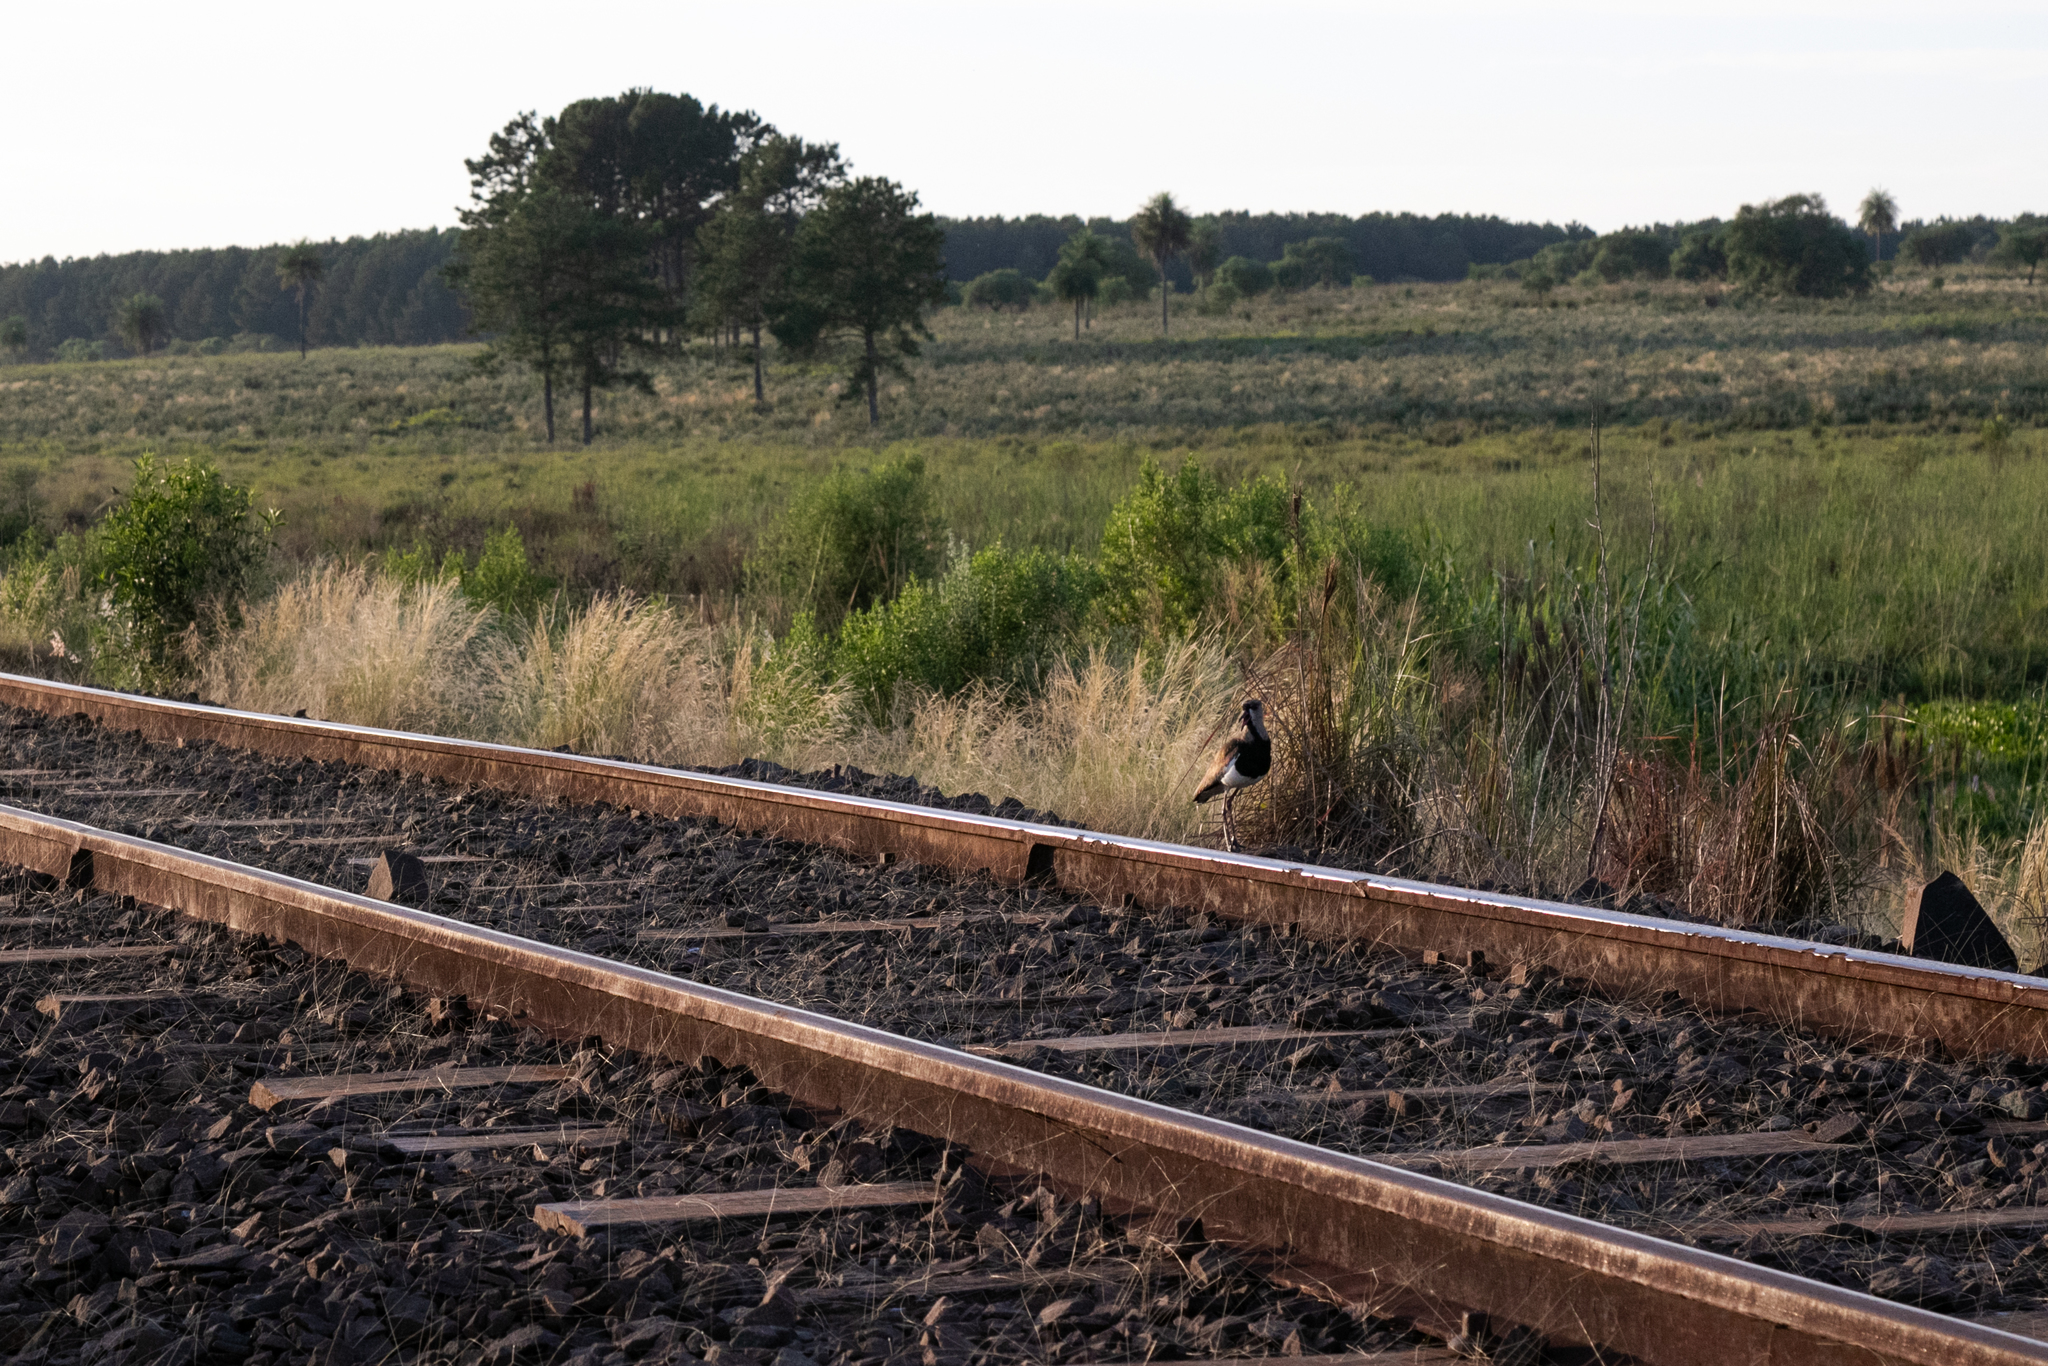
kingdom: Animalia
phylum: Chordata
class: Aves
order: Charadriiformes
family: Charadriidae
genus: Vanellus
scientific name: Vanellus chilensis
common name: Southern lapwing
